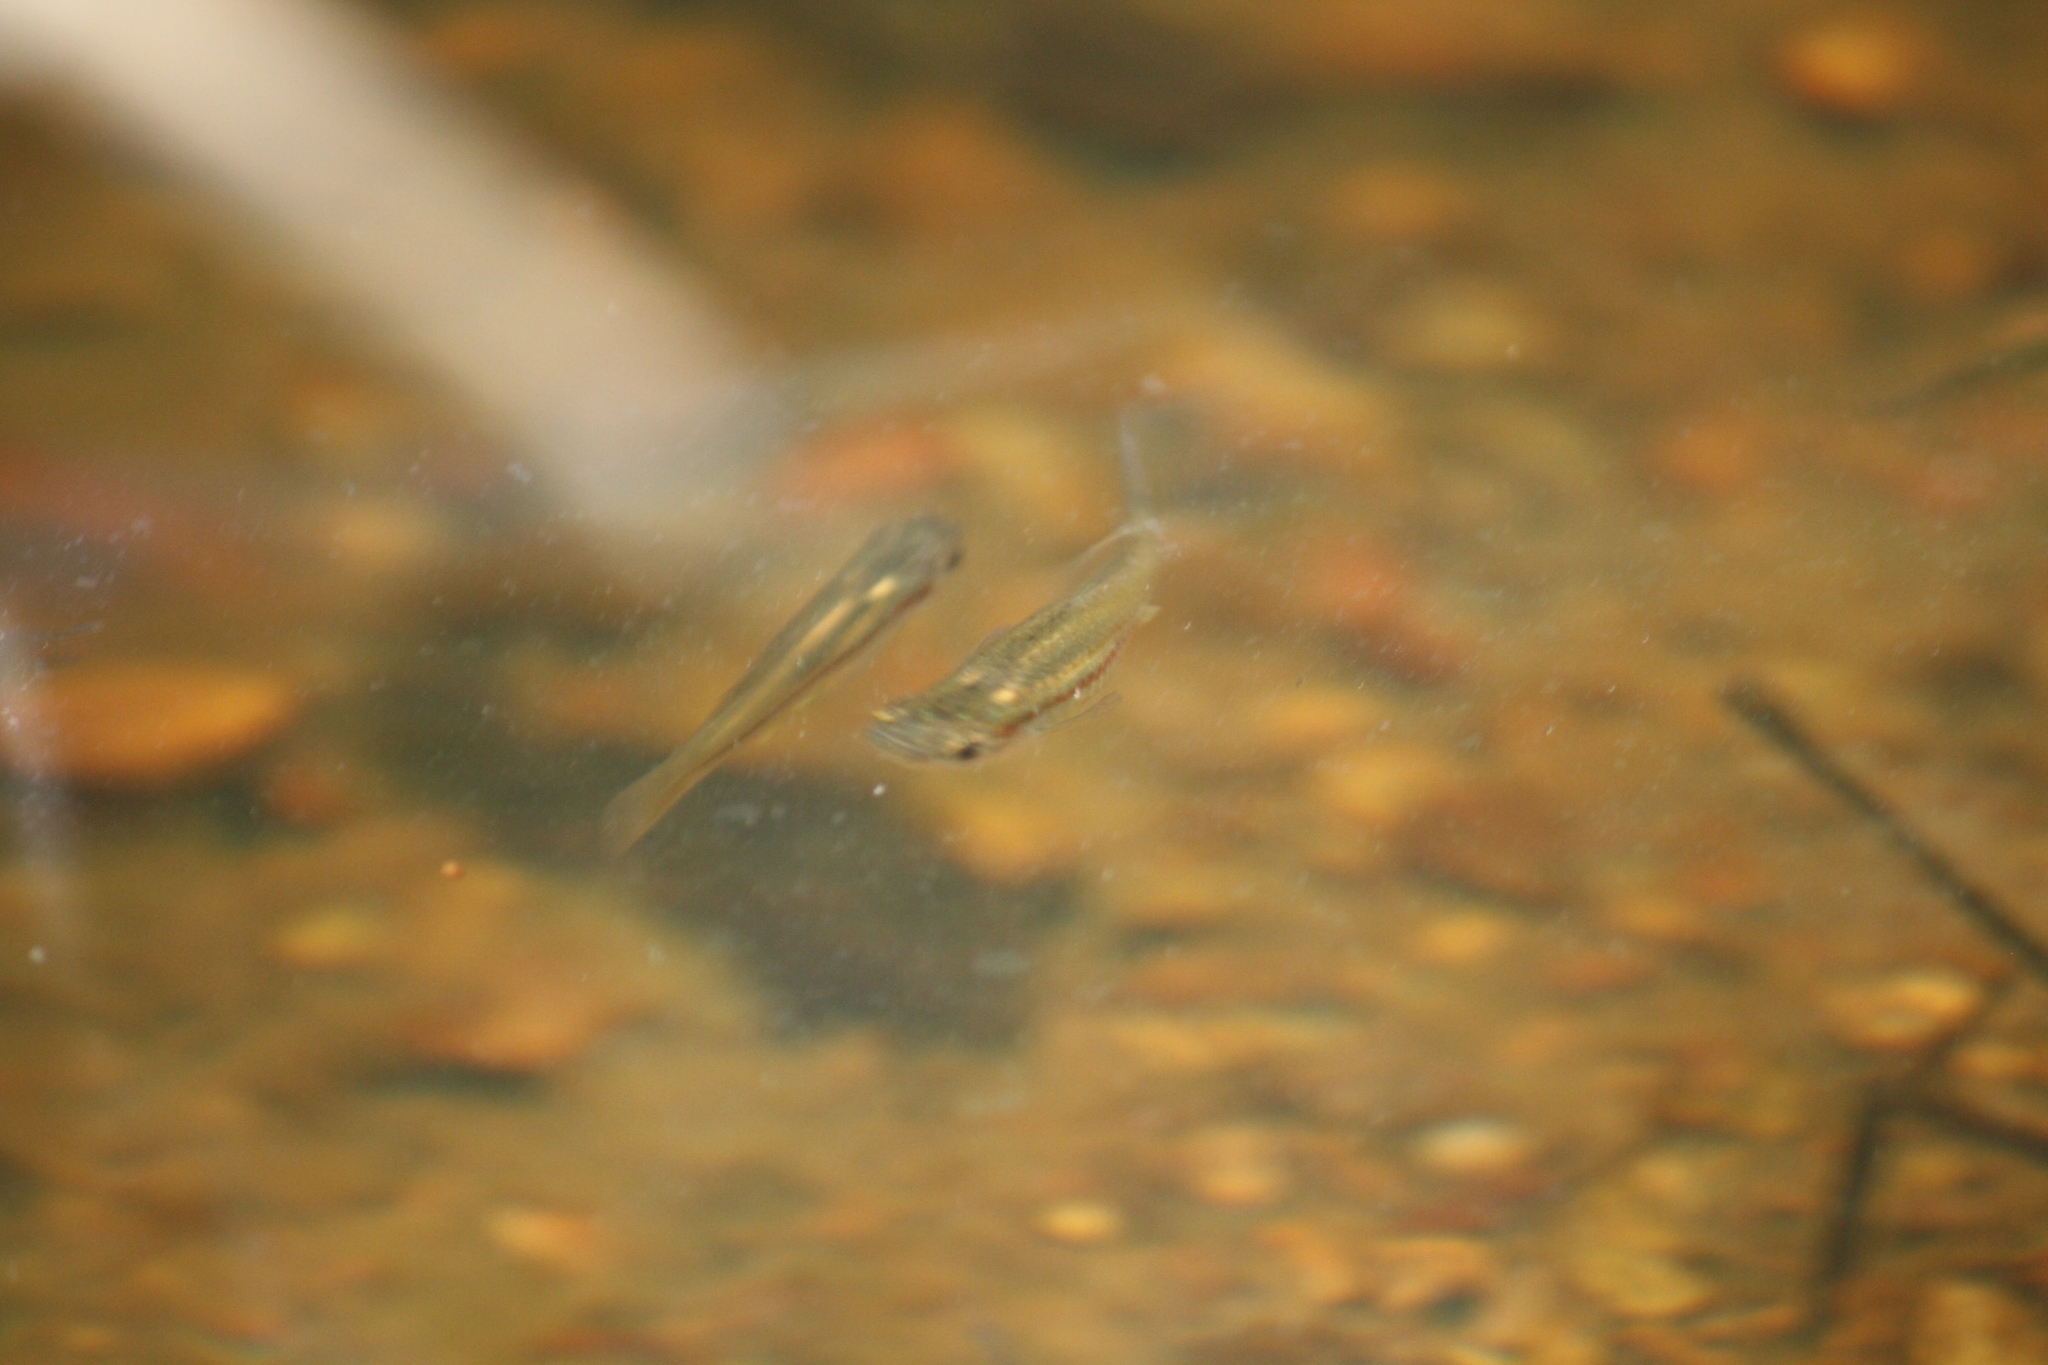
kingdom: Animalia
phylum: Chordata
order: Cyprinodontiformes
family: Poeciliidae
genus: Gambusia
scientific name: Gambusia holbrooki
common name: Eastern mosquitofish
